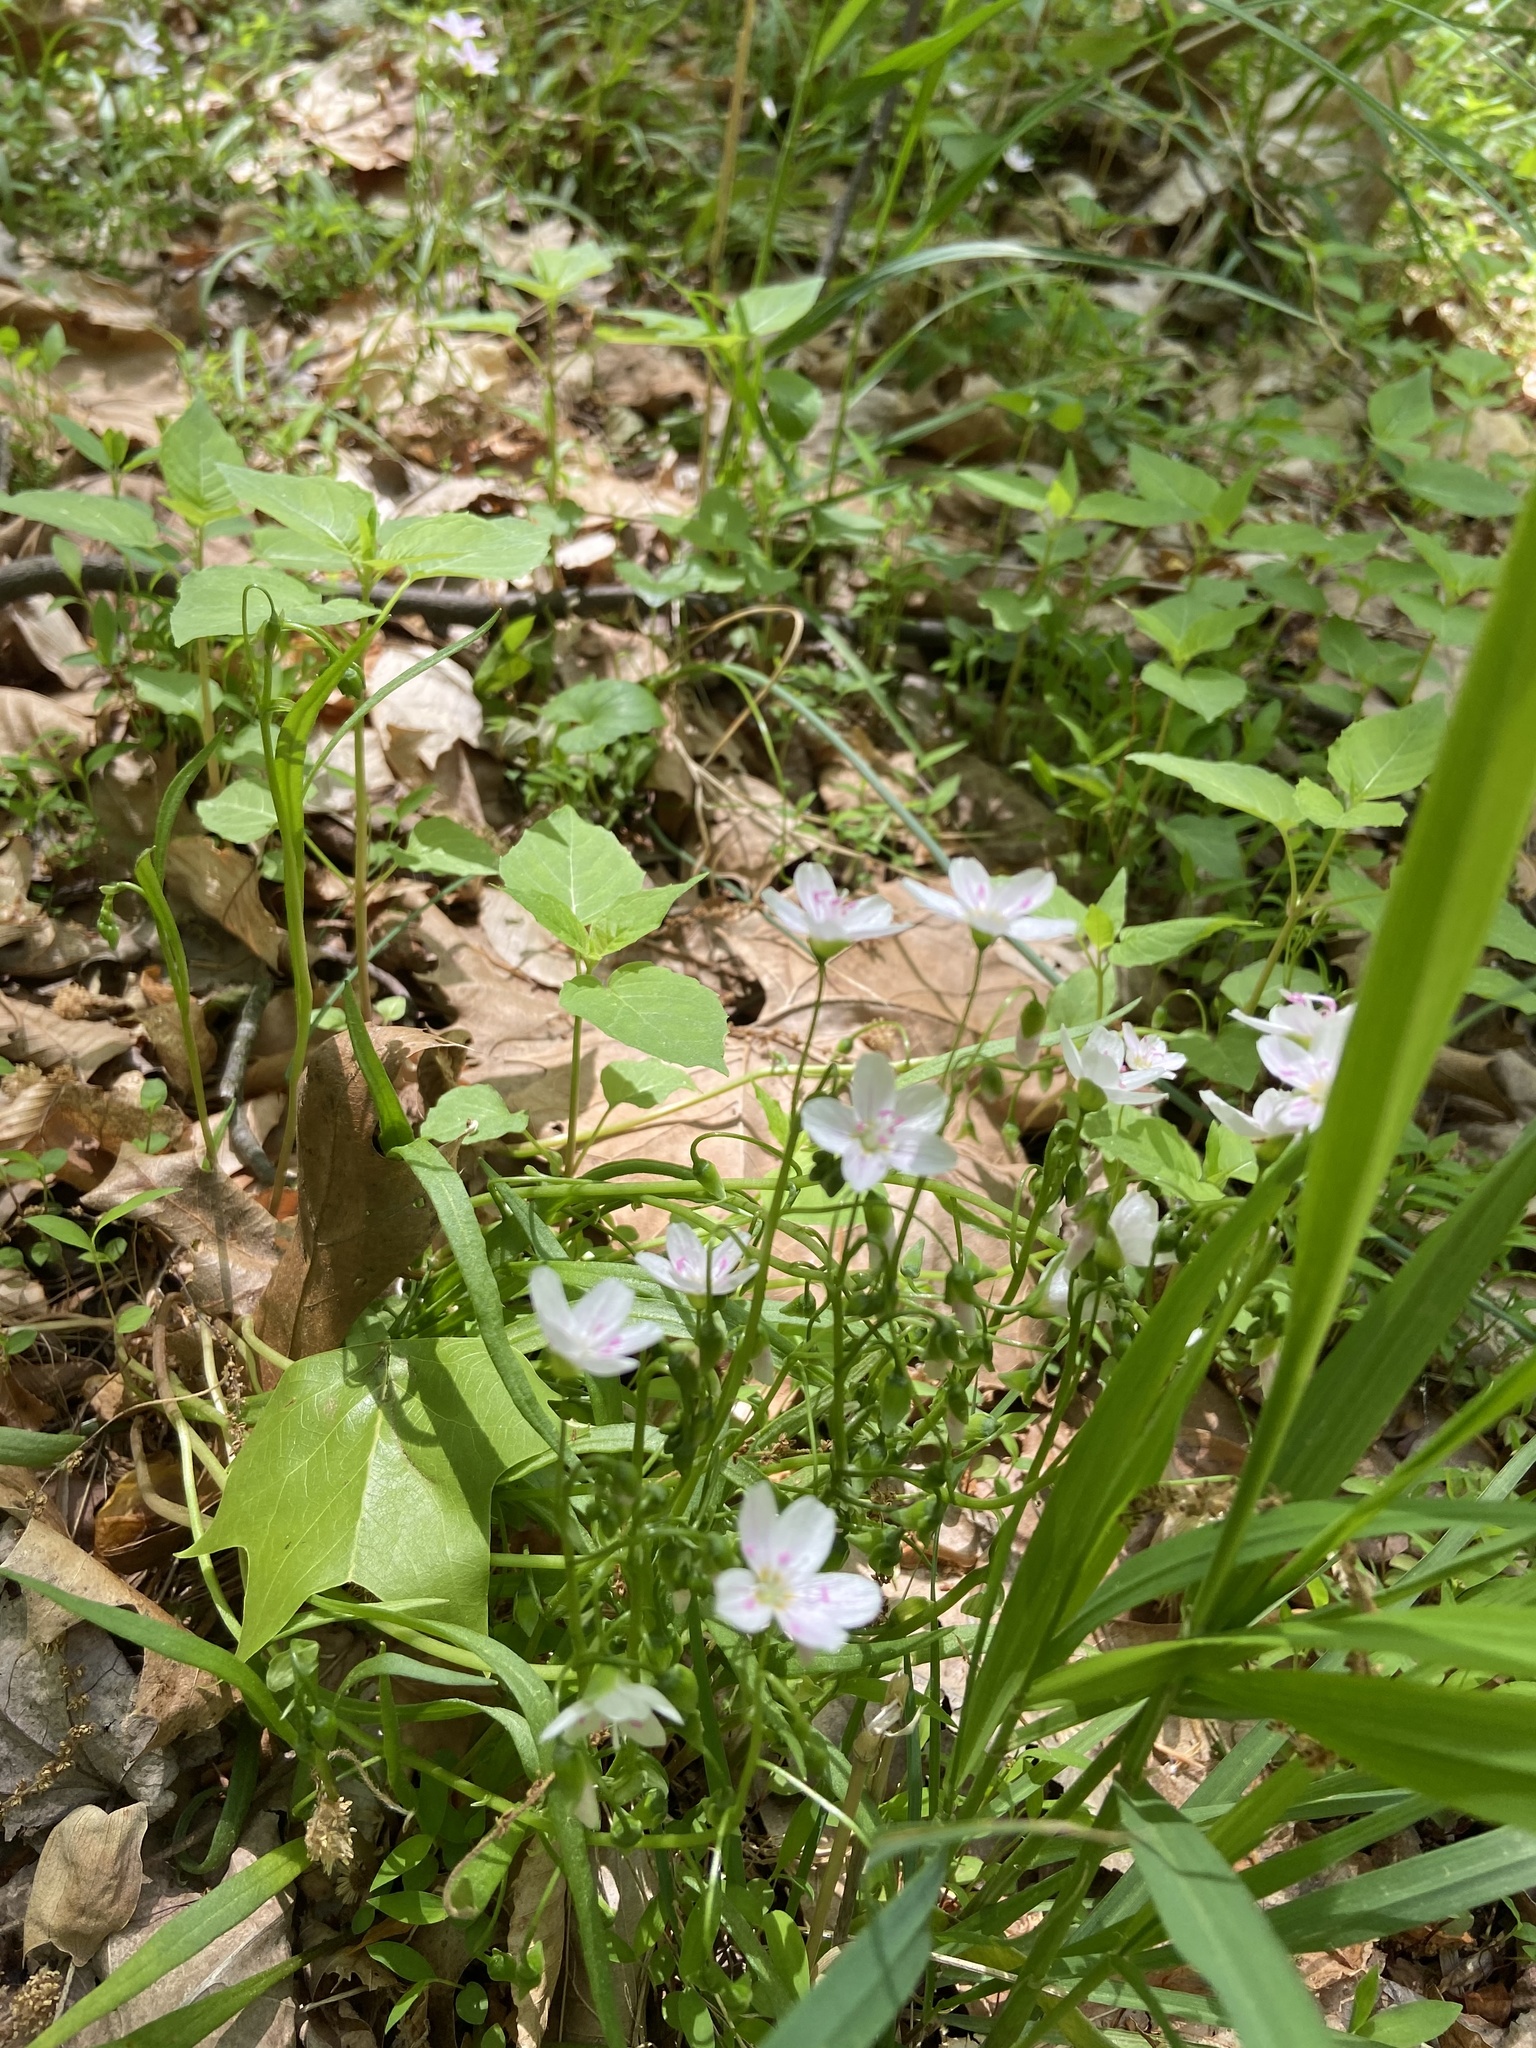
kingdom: Plantae
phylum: Tracheophyta
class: Magnoliopsida
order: Caryophyllales
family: Montiaceae
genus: Claytonia
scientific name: Claytonia virginica
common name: Virginia springbeauty
